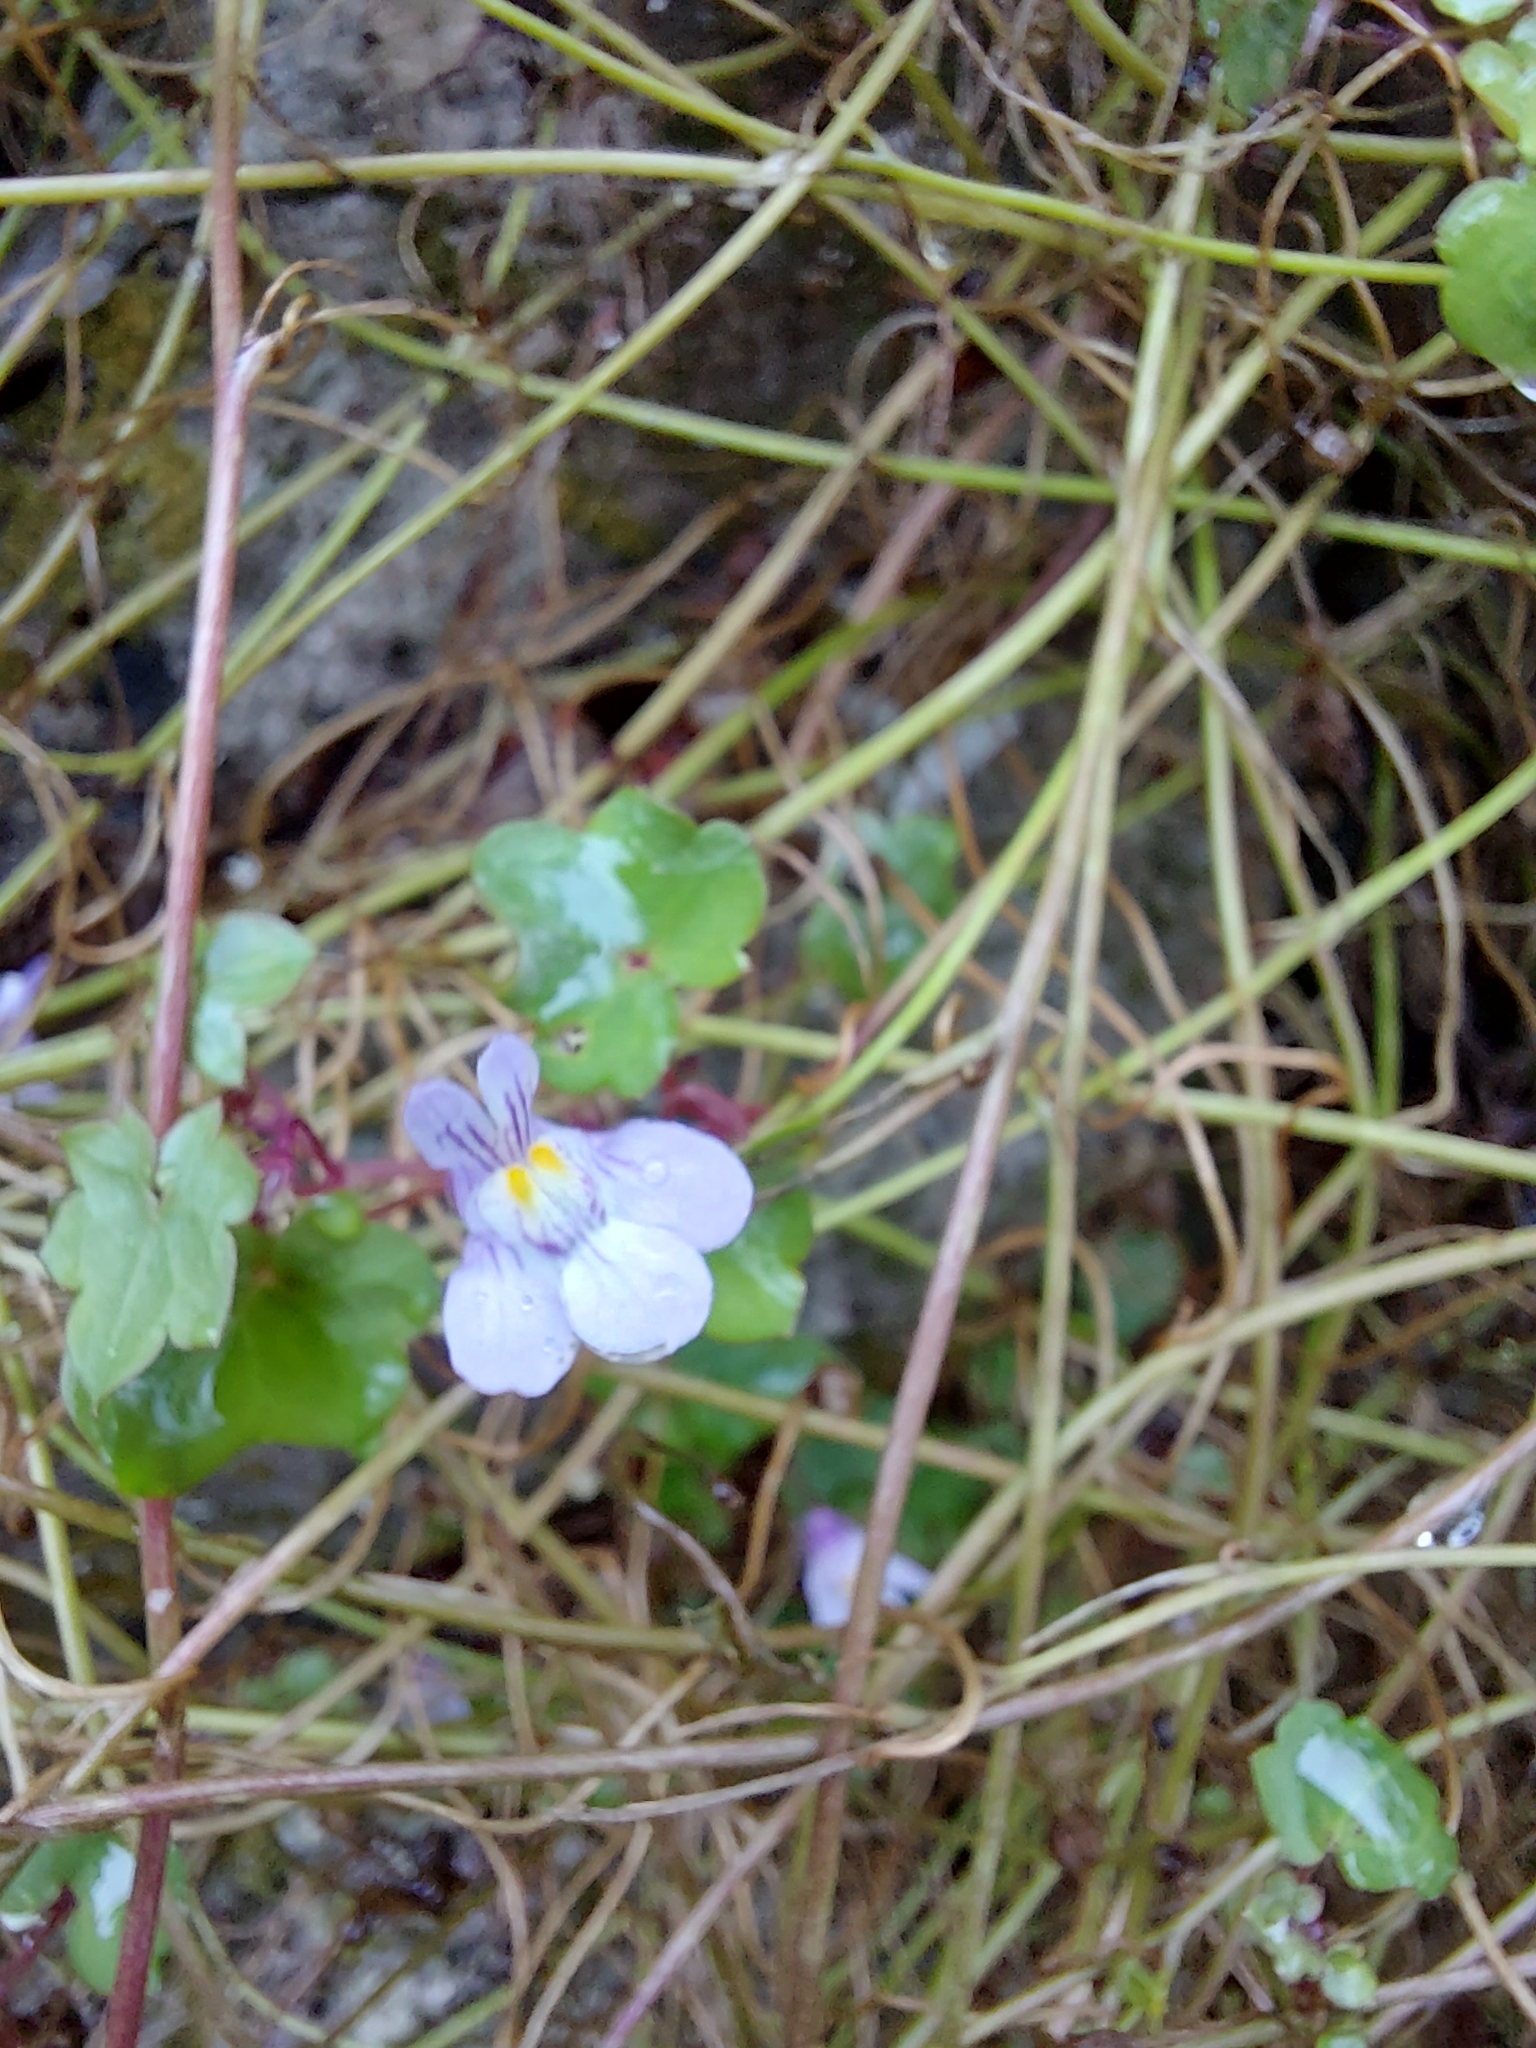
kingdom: Plantae
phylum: Tracheophyta
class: Magnoliopsida
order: Lamiales
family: Plantaginaceae
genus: Cymbalaria
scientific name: Cymbalaria muralis
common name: Ivy-leaved toadflax
